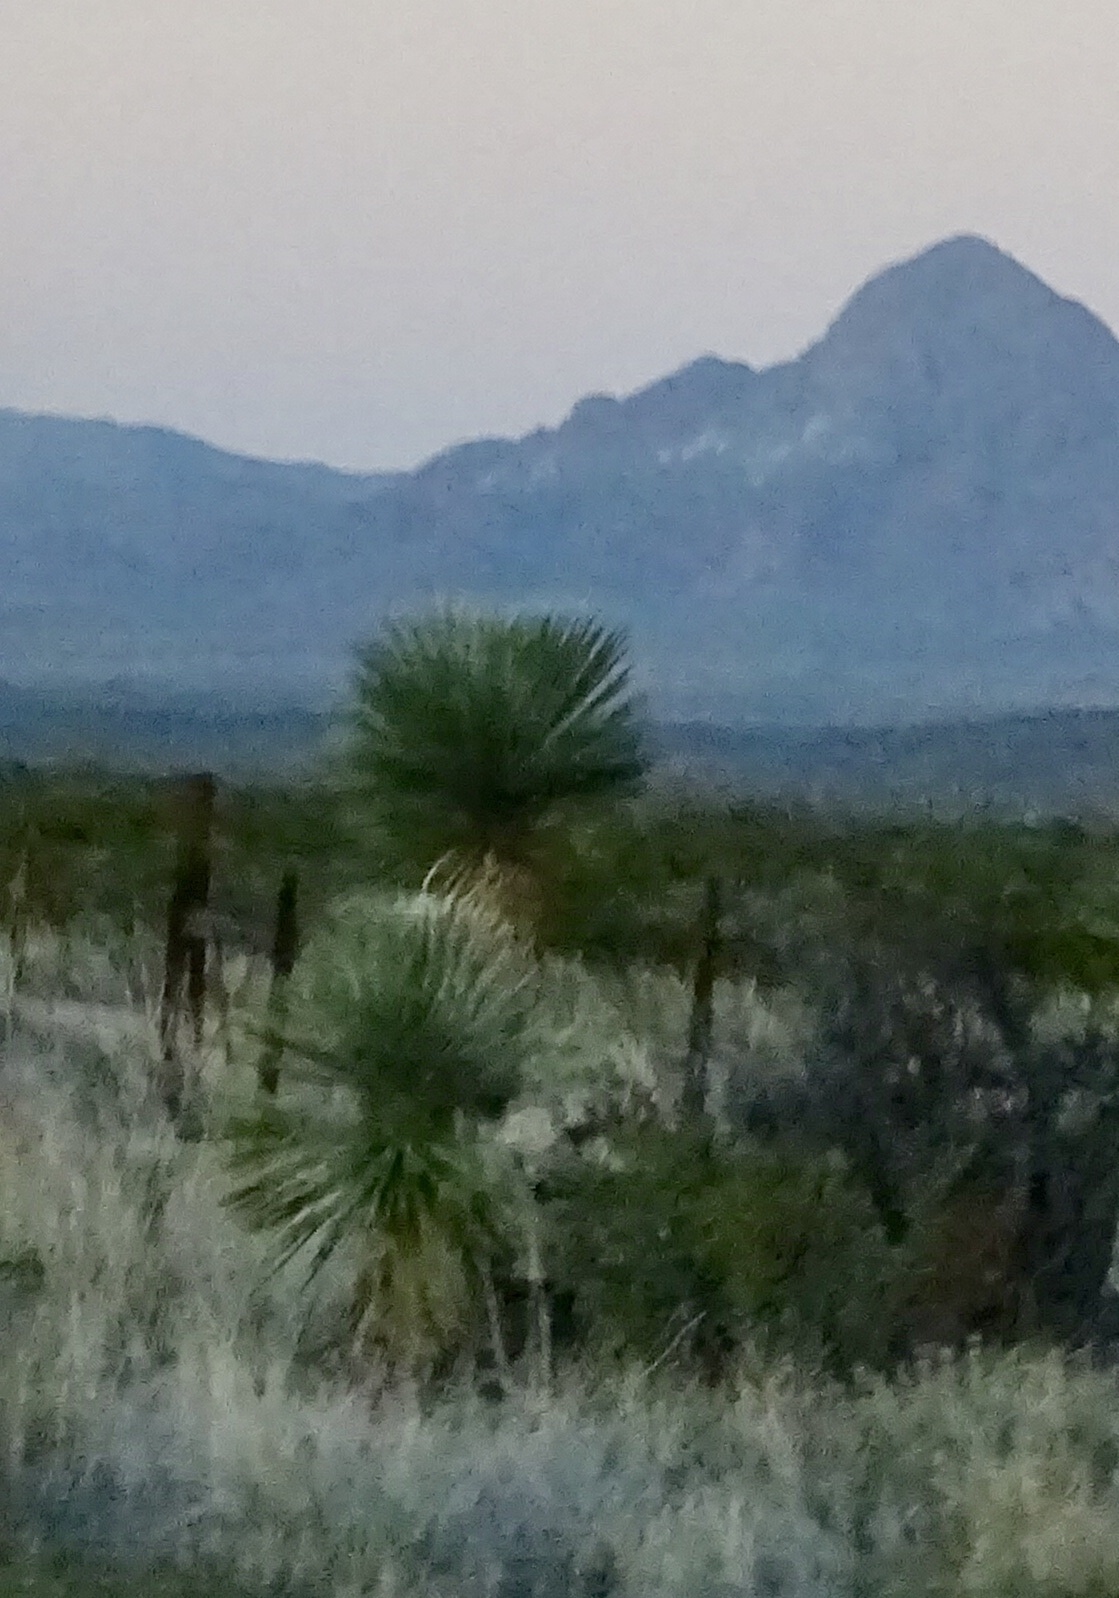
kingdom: Plantae
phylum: Tracheophyta
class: Liliopsida
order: Asparagales
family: Asparagaceae
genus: Yucca
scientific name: Yucca elata
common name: Palmella
